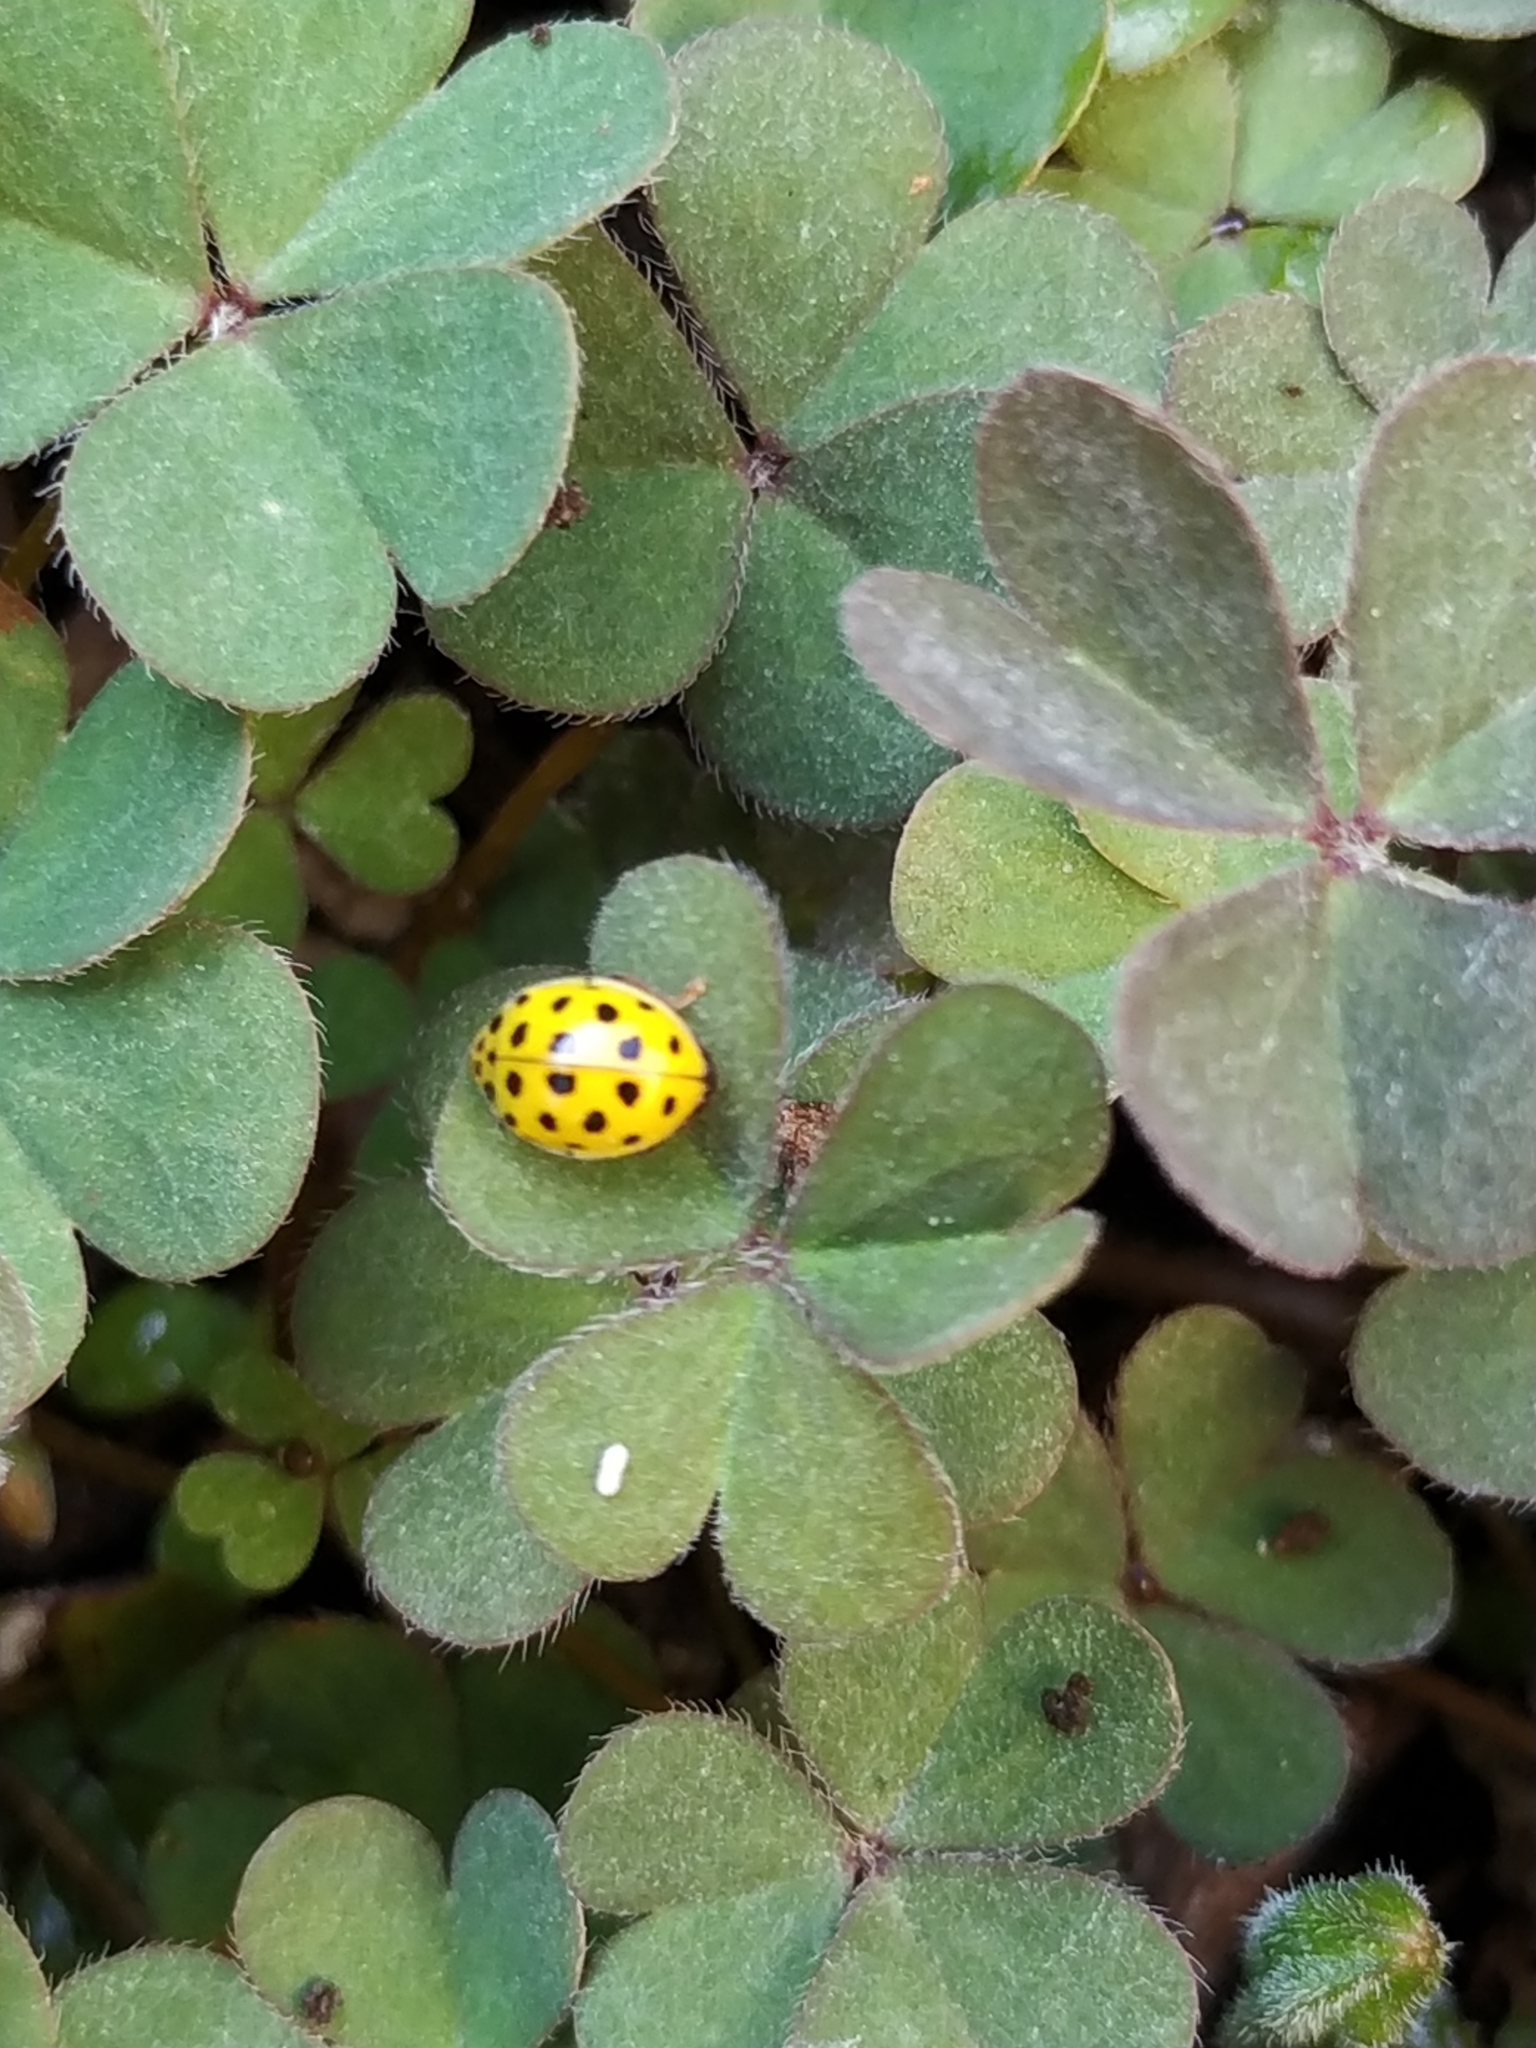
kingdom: Animalia
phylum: Arthropoda
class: Insecta
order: Coleoptera
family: Coccinellidae
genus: Psyllobora
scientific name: Psyllobora vigintiduopunctata
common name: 22-spot ladybird
